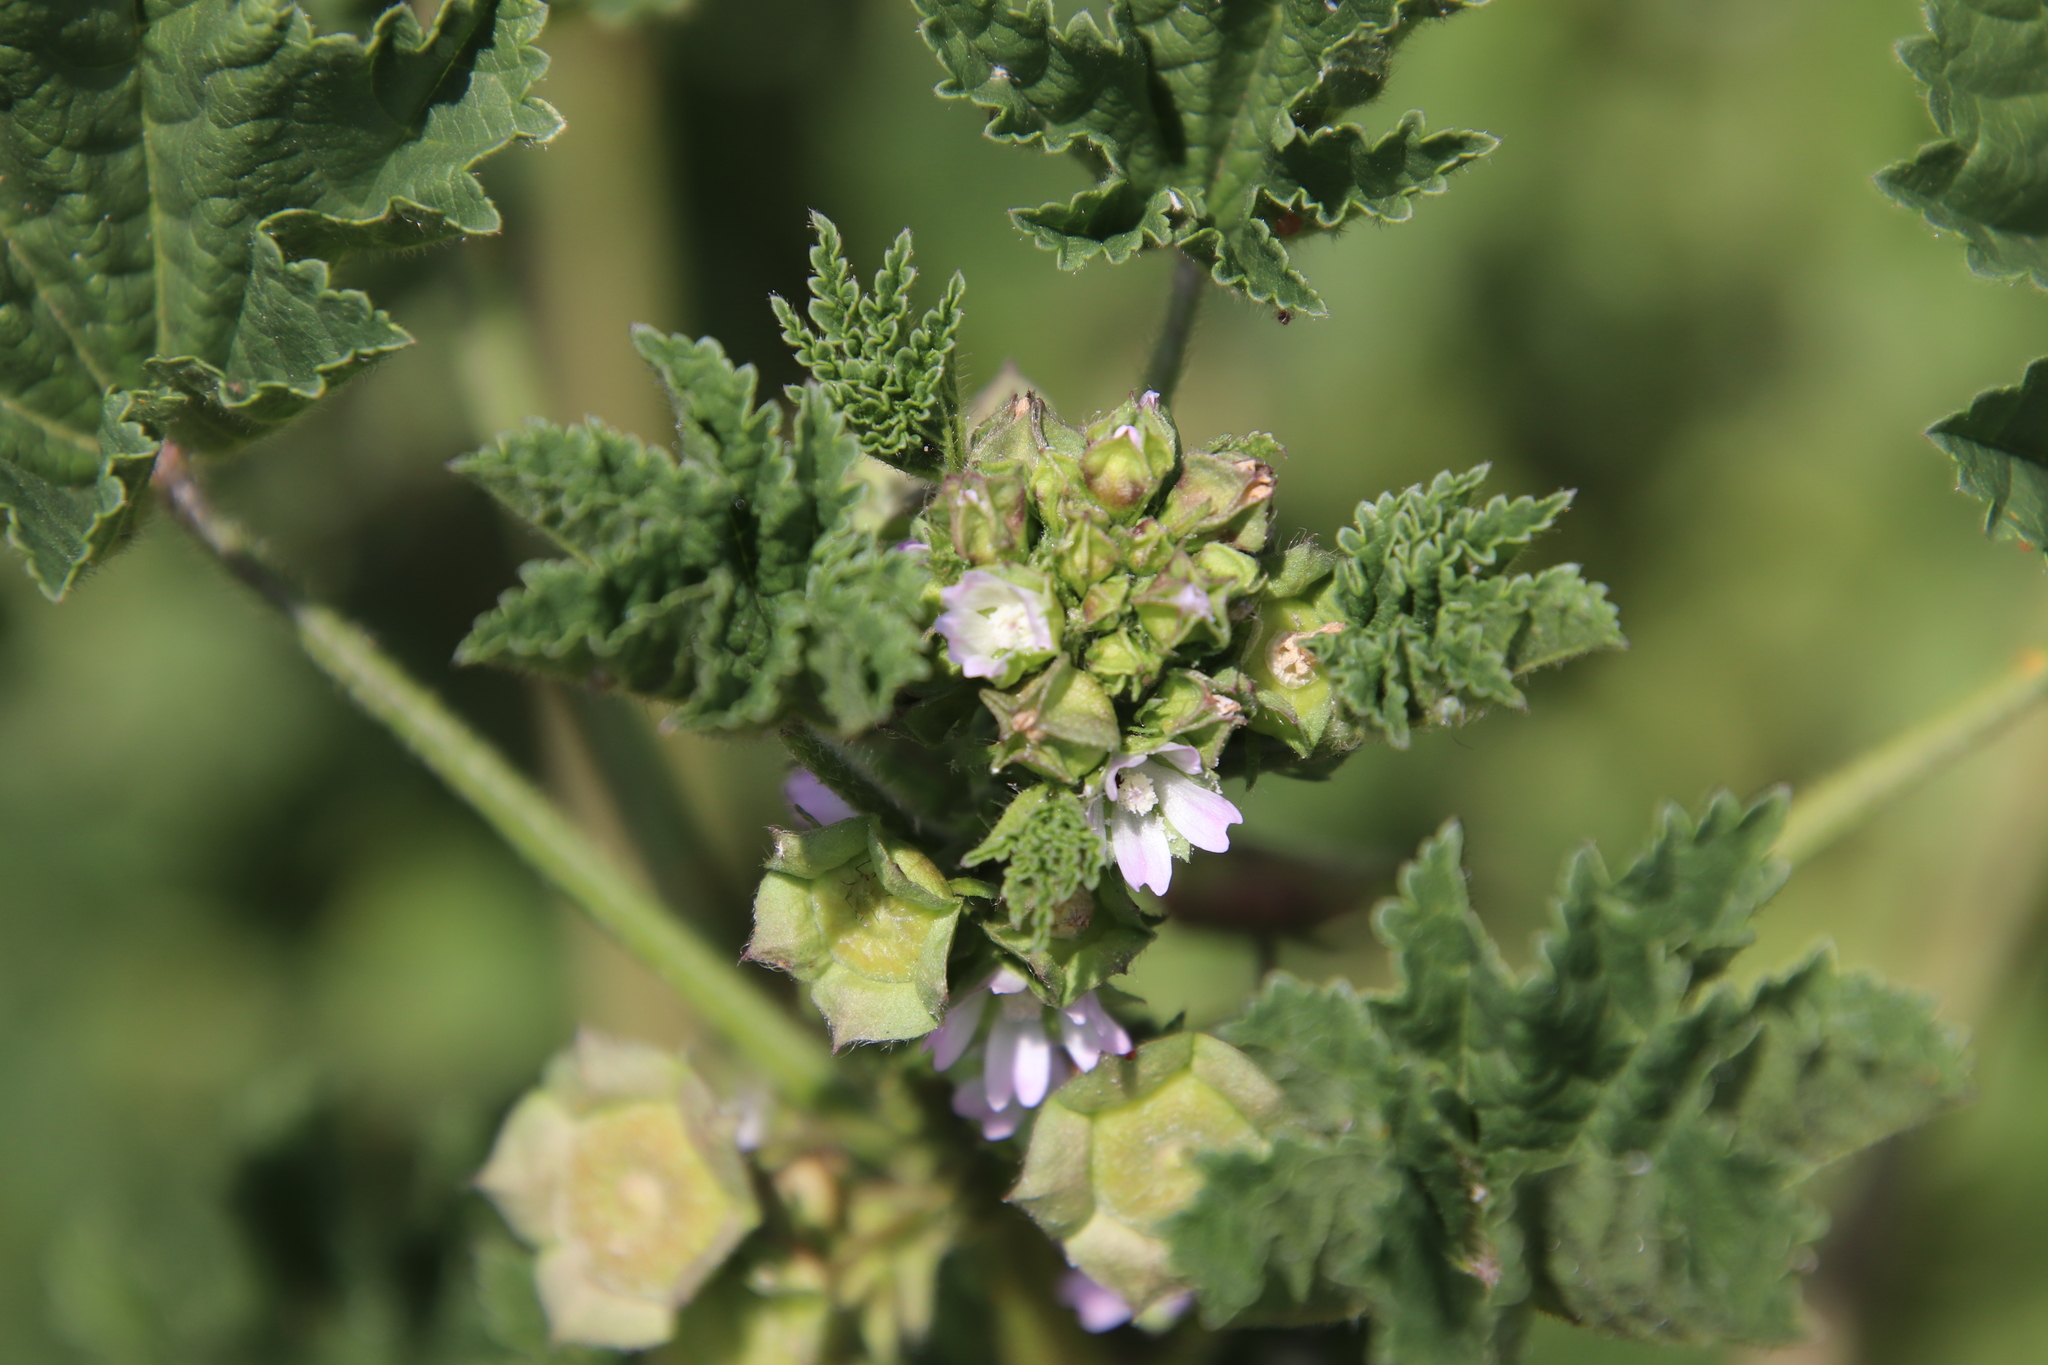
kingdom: Plantae
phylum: Tracheophyta
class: Magnoliopsida
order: Malvales
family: Malvaceae
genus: Malva
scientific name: Malva parviflora
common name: Least mallow
